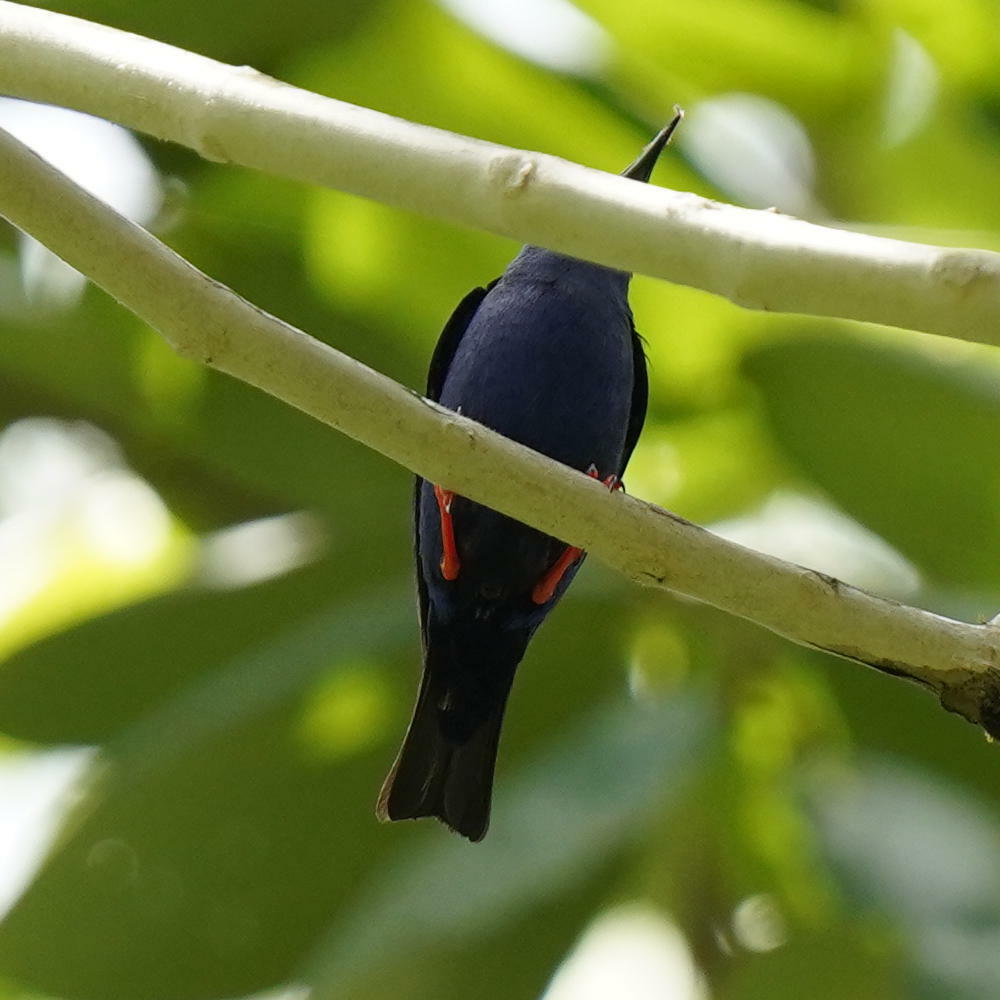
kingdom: Animalia
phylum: Chordata
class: Aves
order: Passeriformes
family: Thraupidae
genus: Cyanerpes
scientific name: Cyanerpes cyaneus
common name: Red-legged honeycreeper
